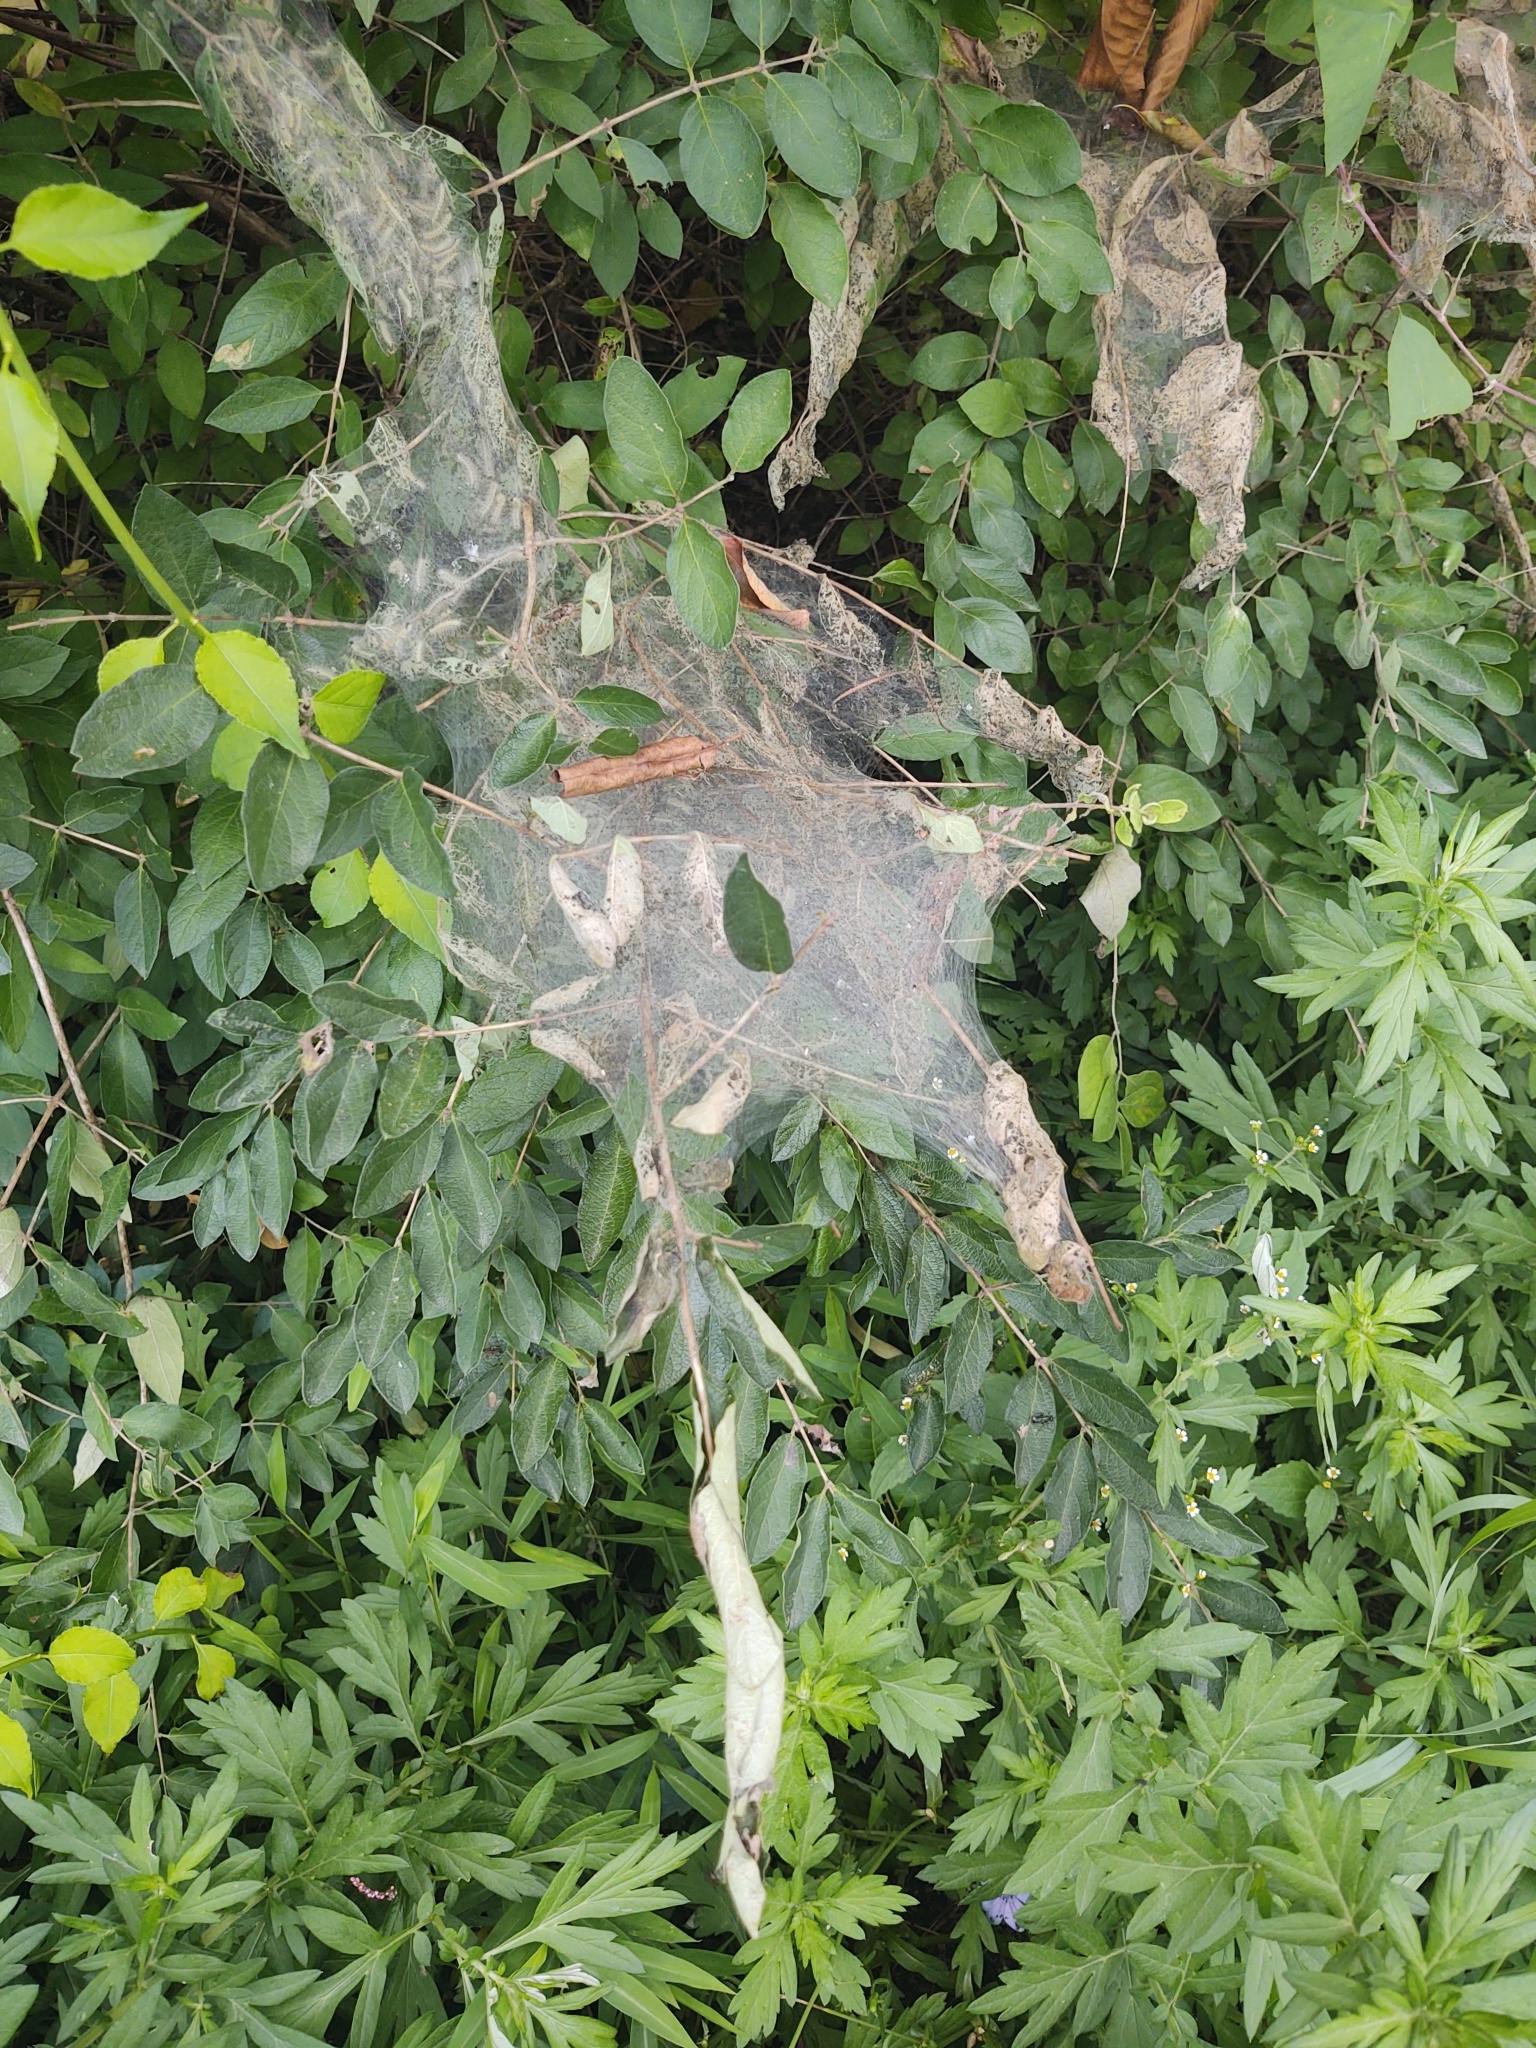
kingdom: Animalia
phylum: Arthropoda
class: Insecta
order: Lepidoptera
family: Erebidae
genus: Hyphantria
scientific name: Hyphantria cunea
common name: American white moth
